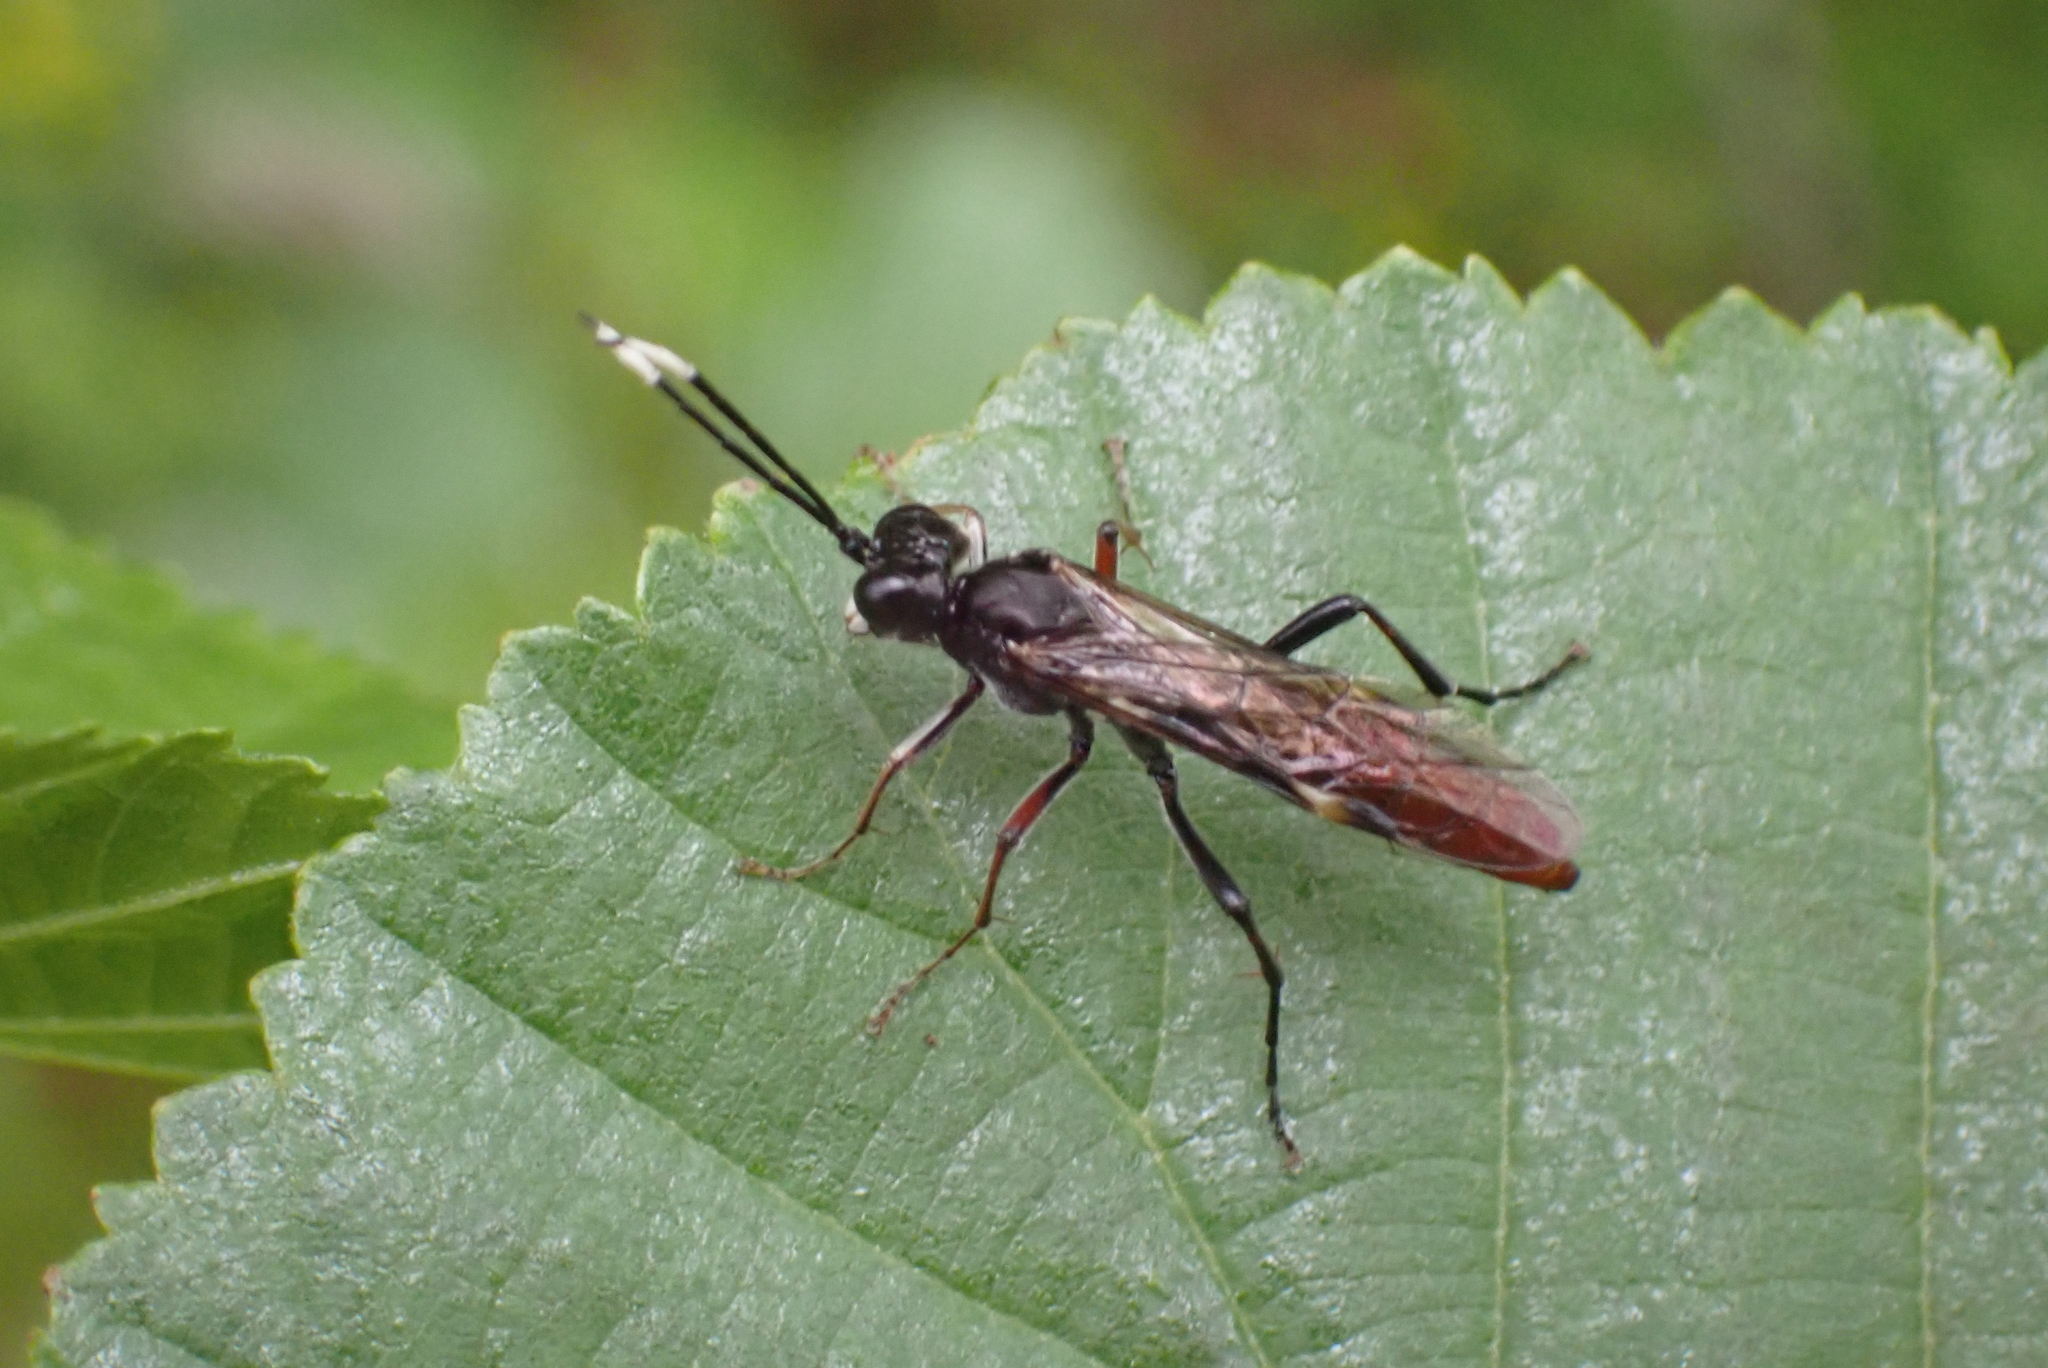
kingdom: Animalia
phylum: Arthropoda
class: Insecta
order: Hymenoptera
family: Tenthredinidae
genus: Tenthredo
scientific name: Tenthredo livida
